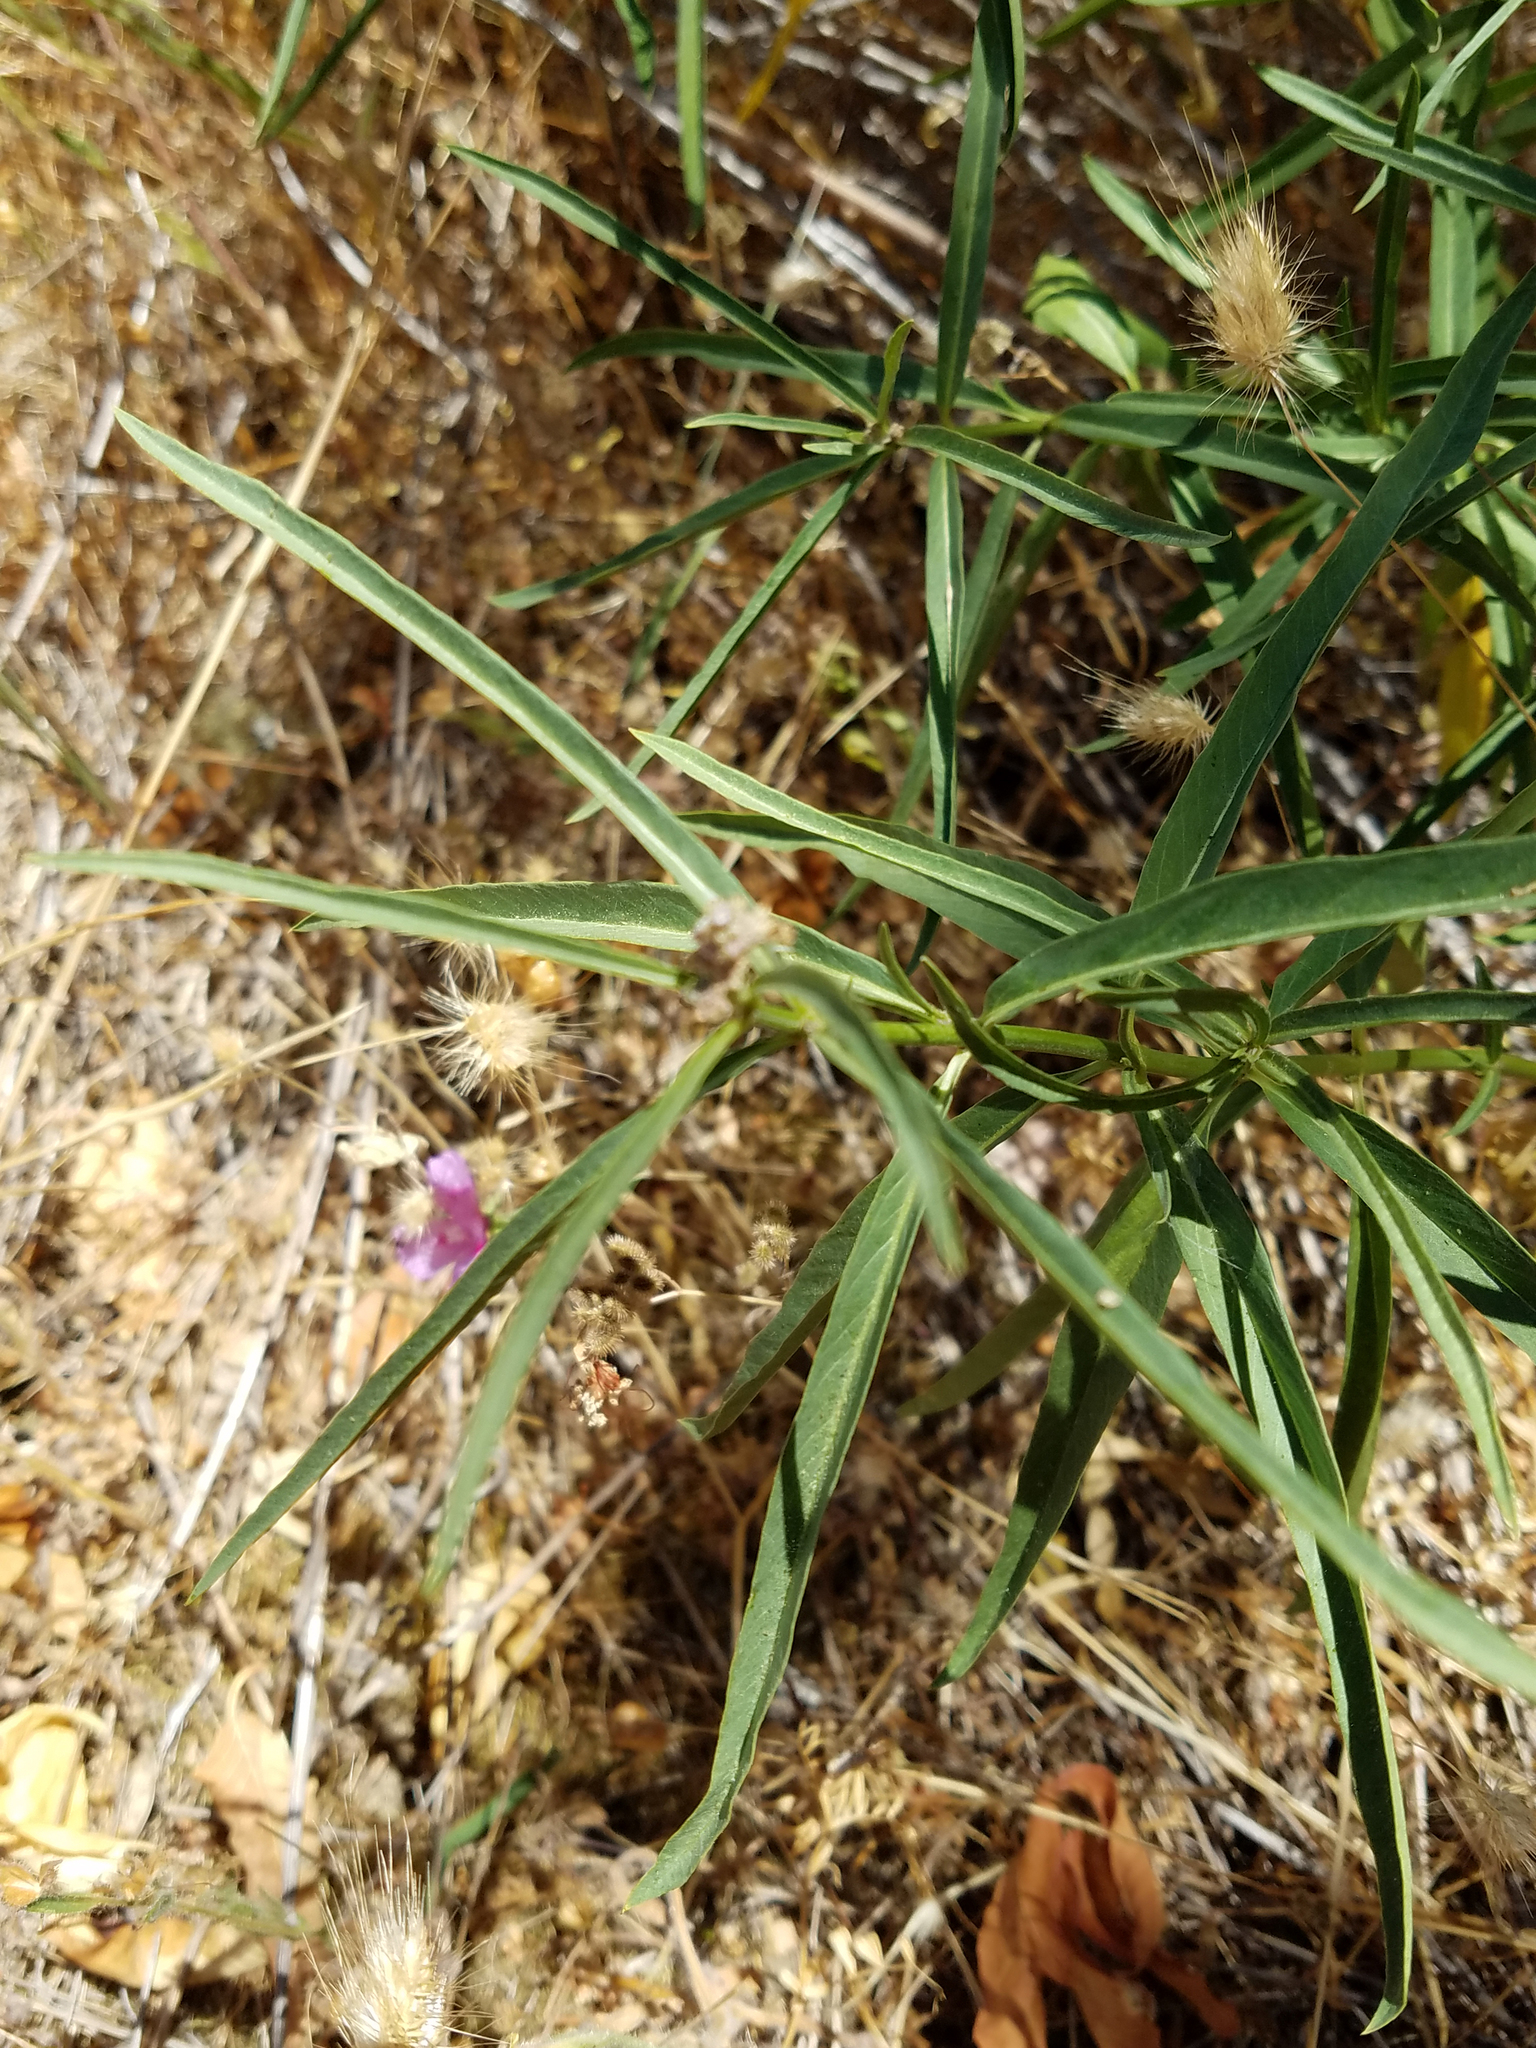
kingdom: Plantae
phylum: Tracheophyta
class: Magnoliopsida
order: Gentianales
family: Apocynaceae
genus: Asclepias
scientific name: Asclepias fascicularis
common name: Mexican milkweed
